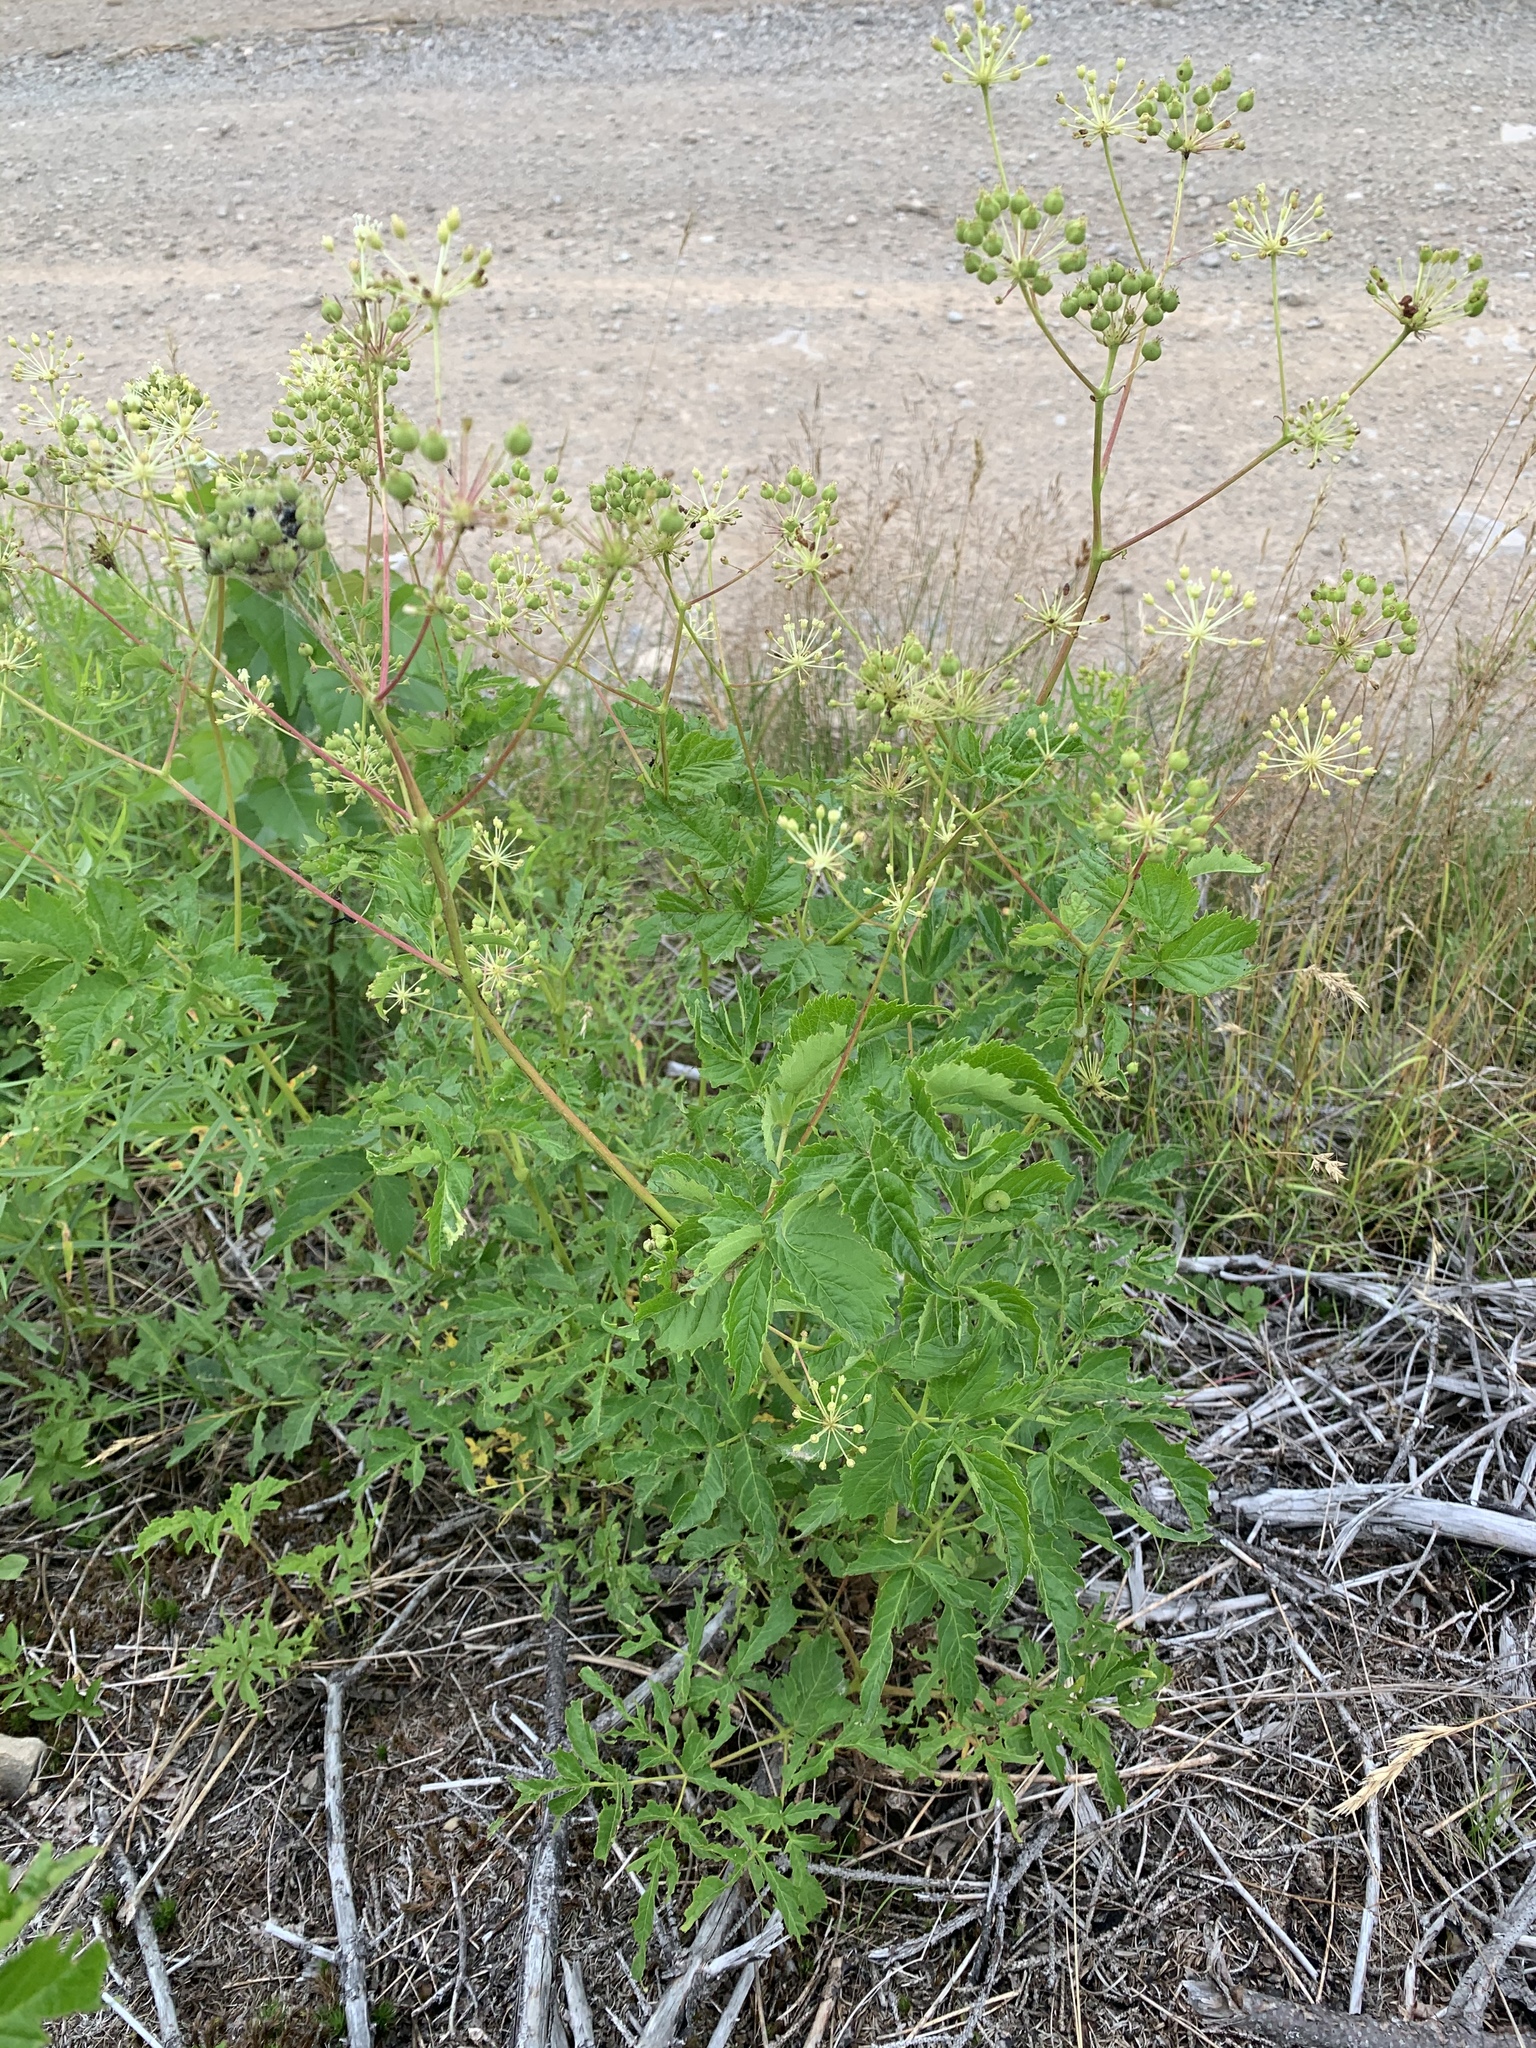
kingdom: Plantae
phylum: Tracheophyta
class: Magnoliopsida
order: Apiales
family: Araliaceae
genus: Aralia
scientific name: Aralia hispida
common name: Bristly sarsaparilla
